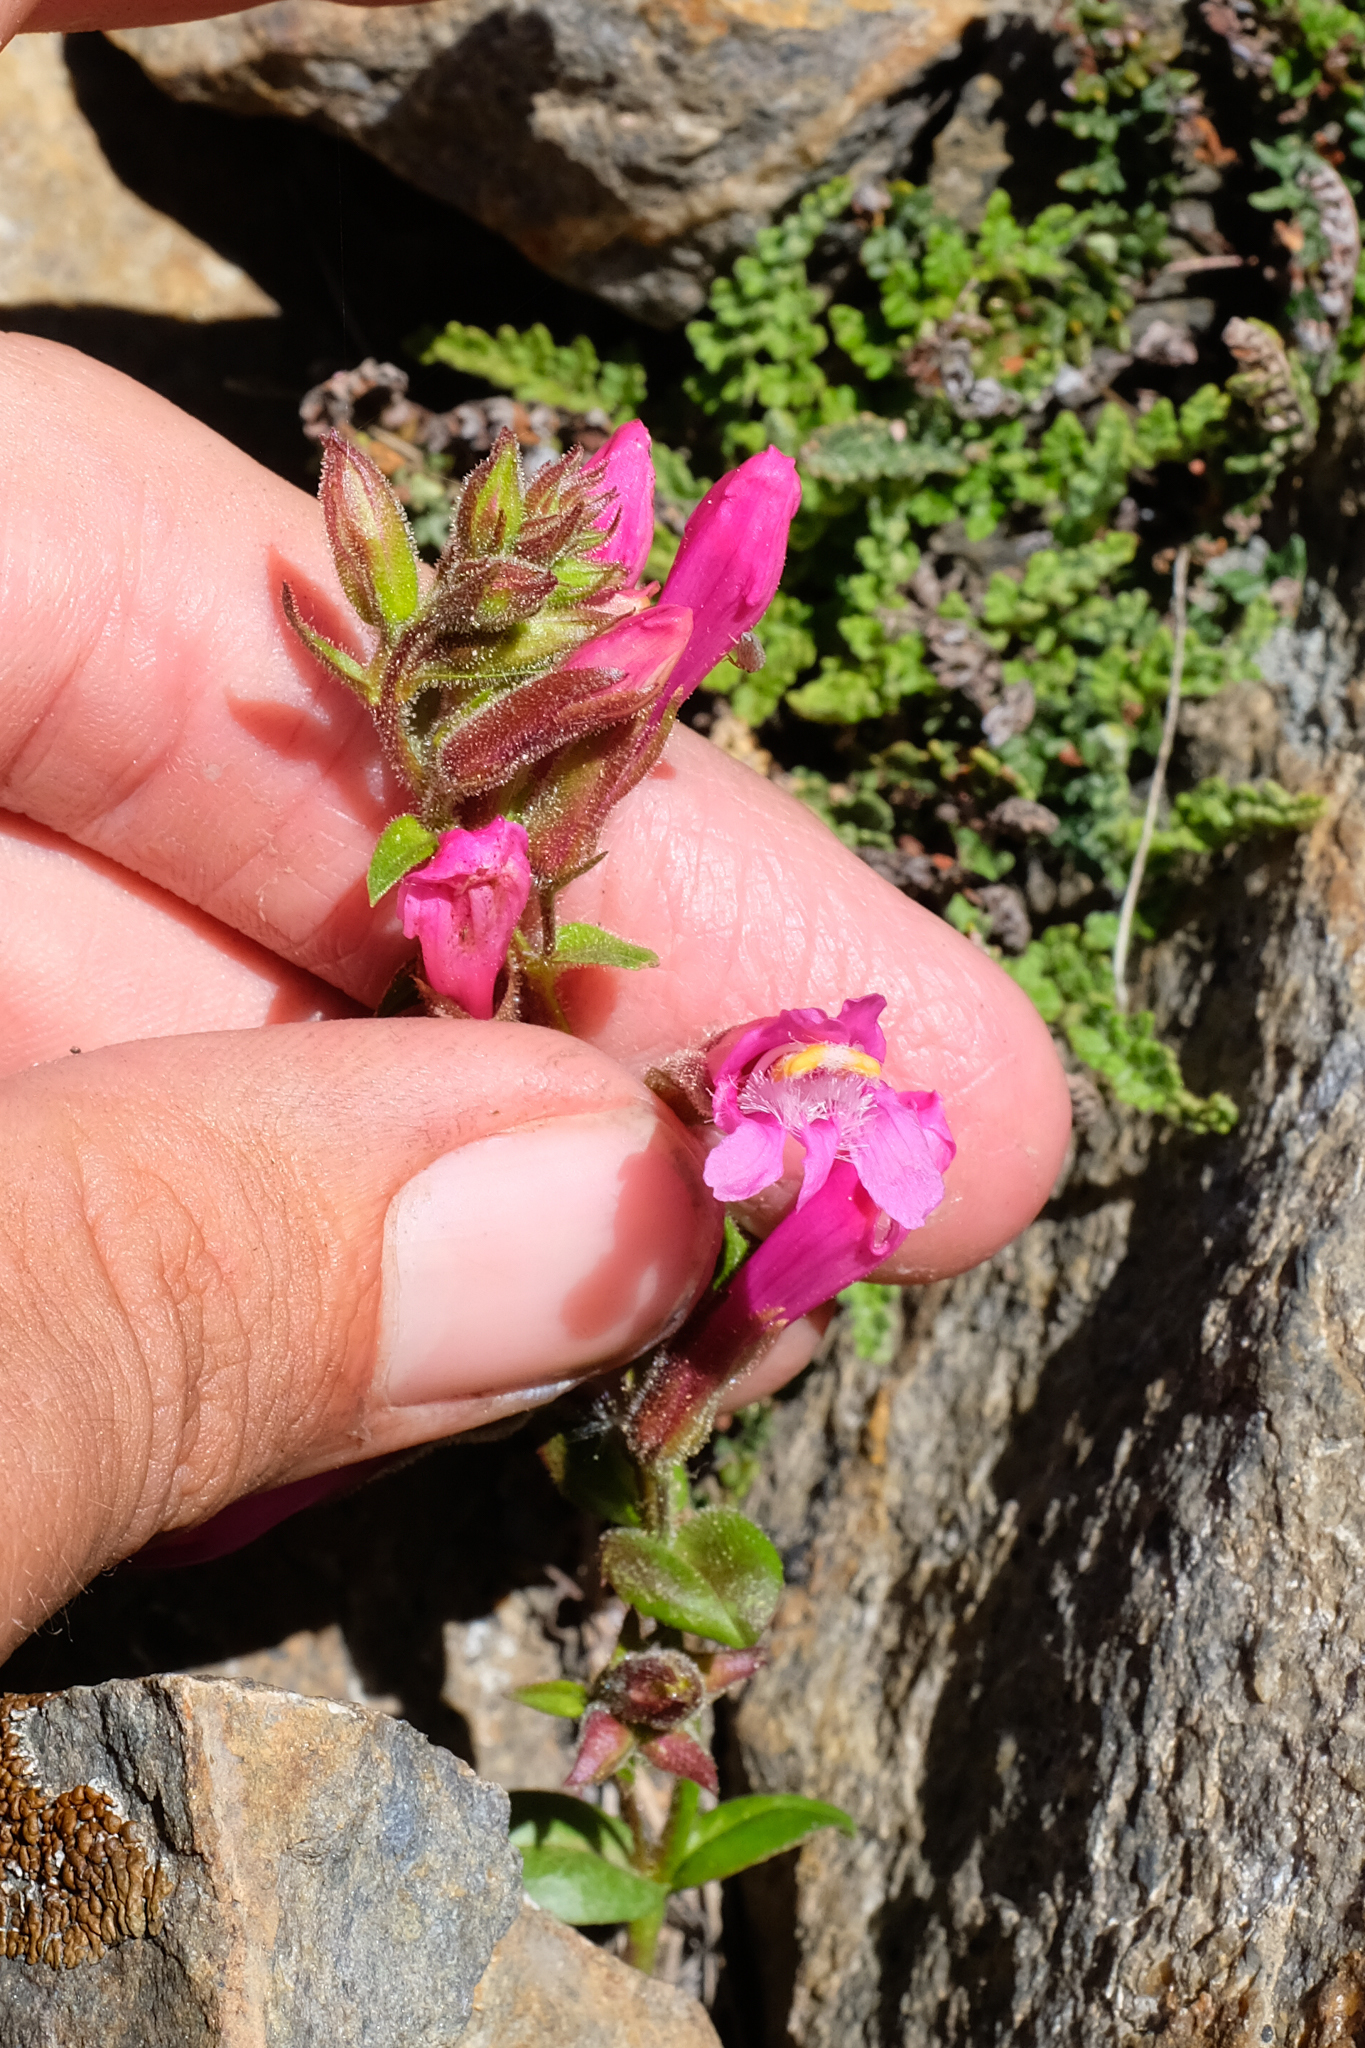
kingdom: Plantae
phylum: Tracheophyta
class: Magnoliopsida
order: Lamiales
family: Plantaginaceae
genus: Penstemon
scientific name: Penstemon newberryi
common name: Mountain-pride
